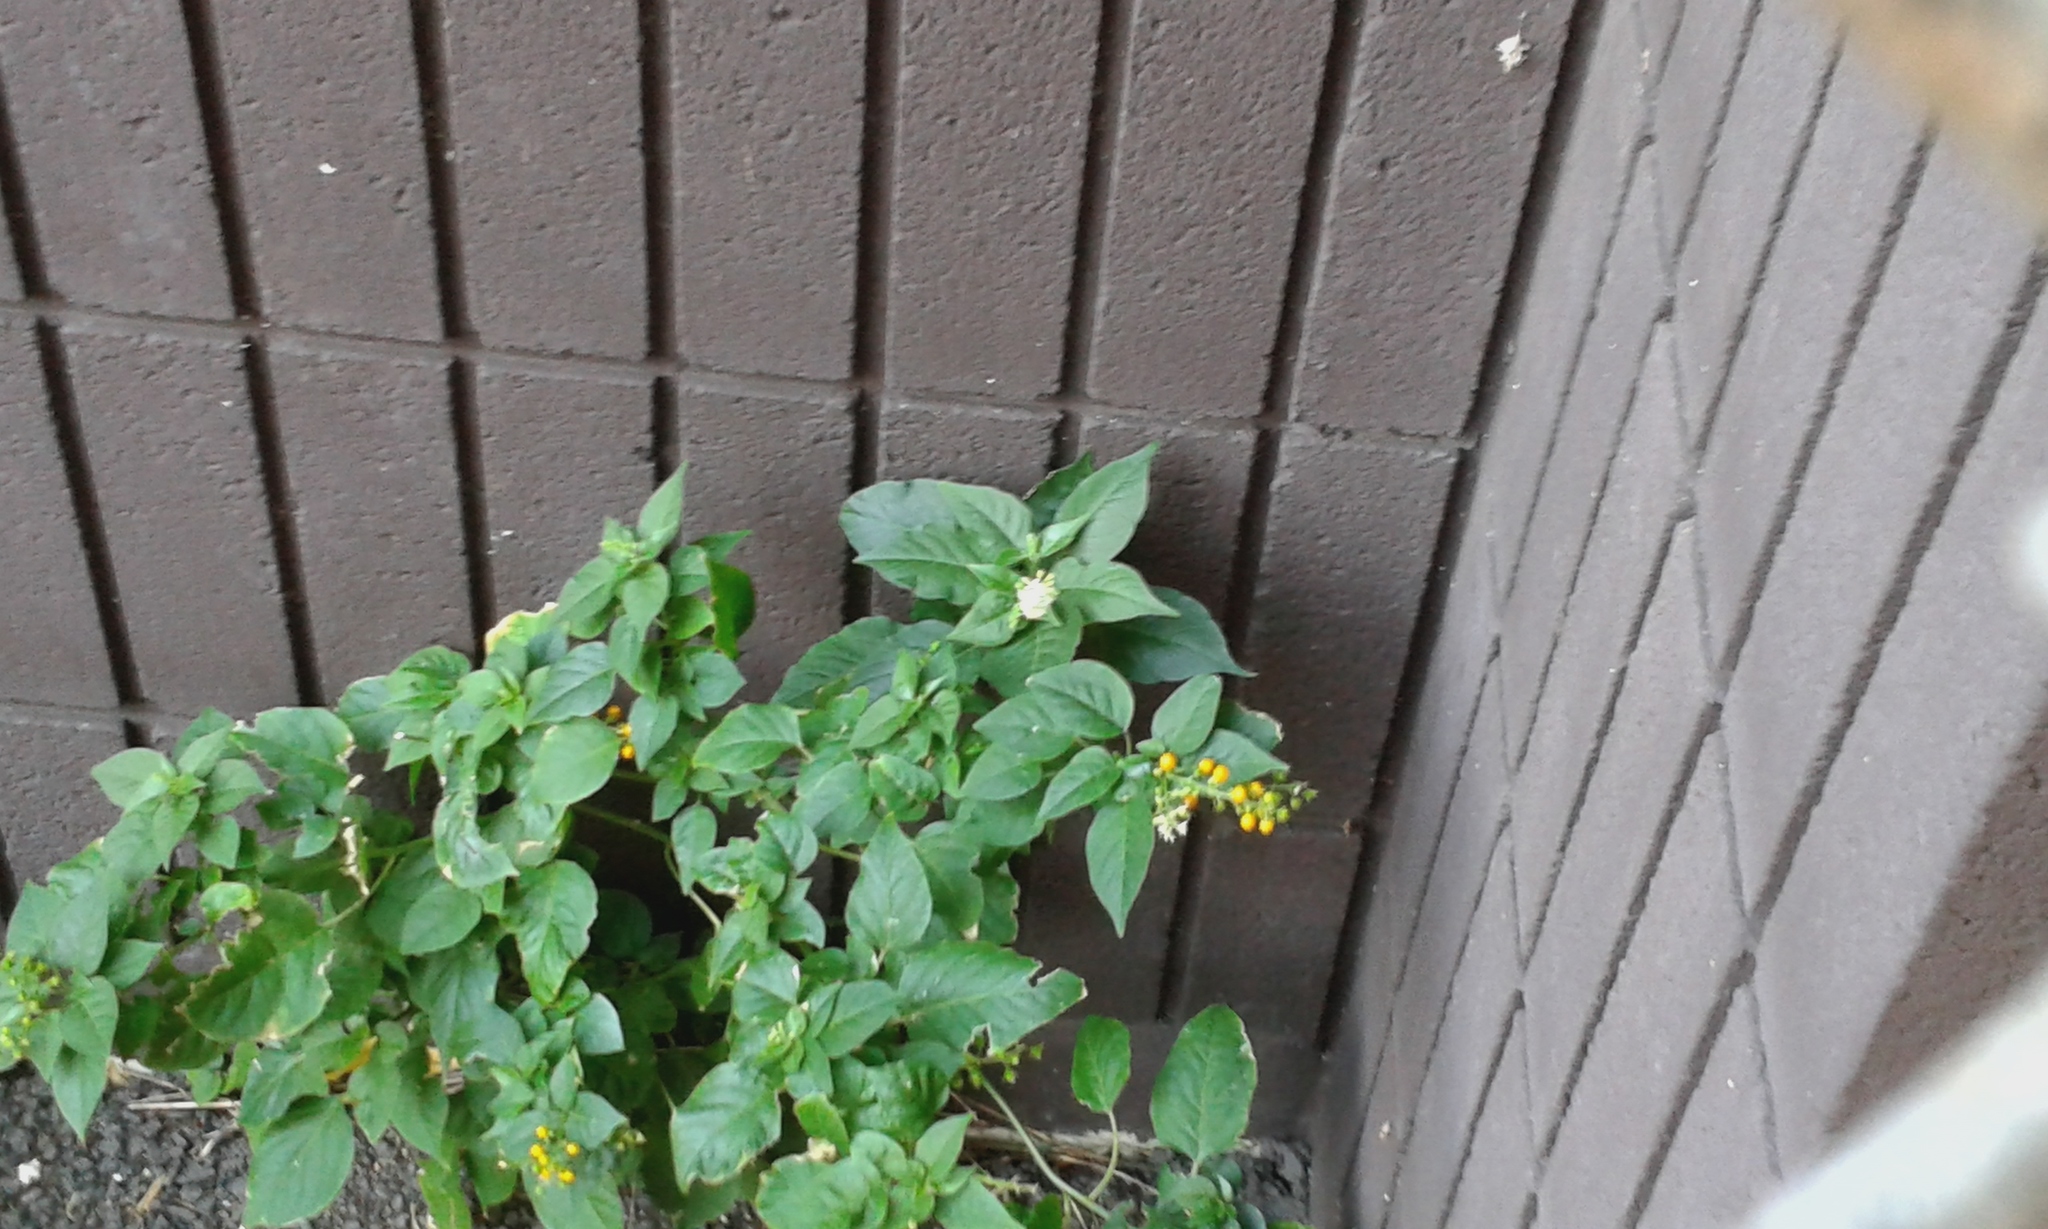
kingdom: Plantae
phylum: Tracheophyta
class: Magnoliopsida
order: Caryophyllales
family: Phytolaccaceae
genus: Rivina
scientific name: Rivina humilis
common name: Rougeplant
